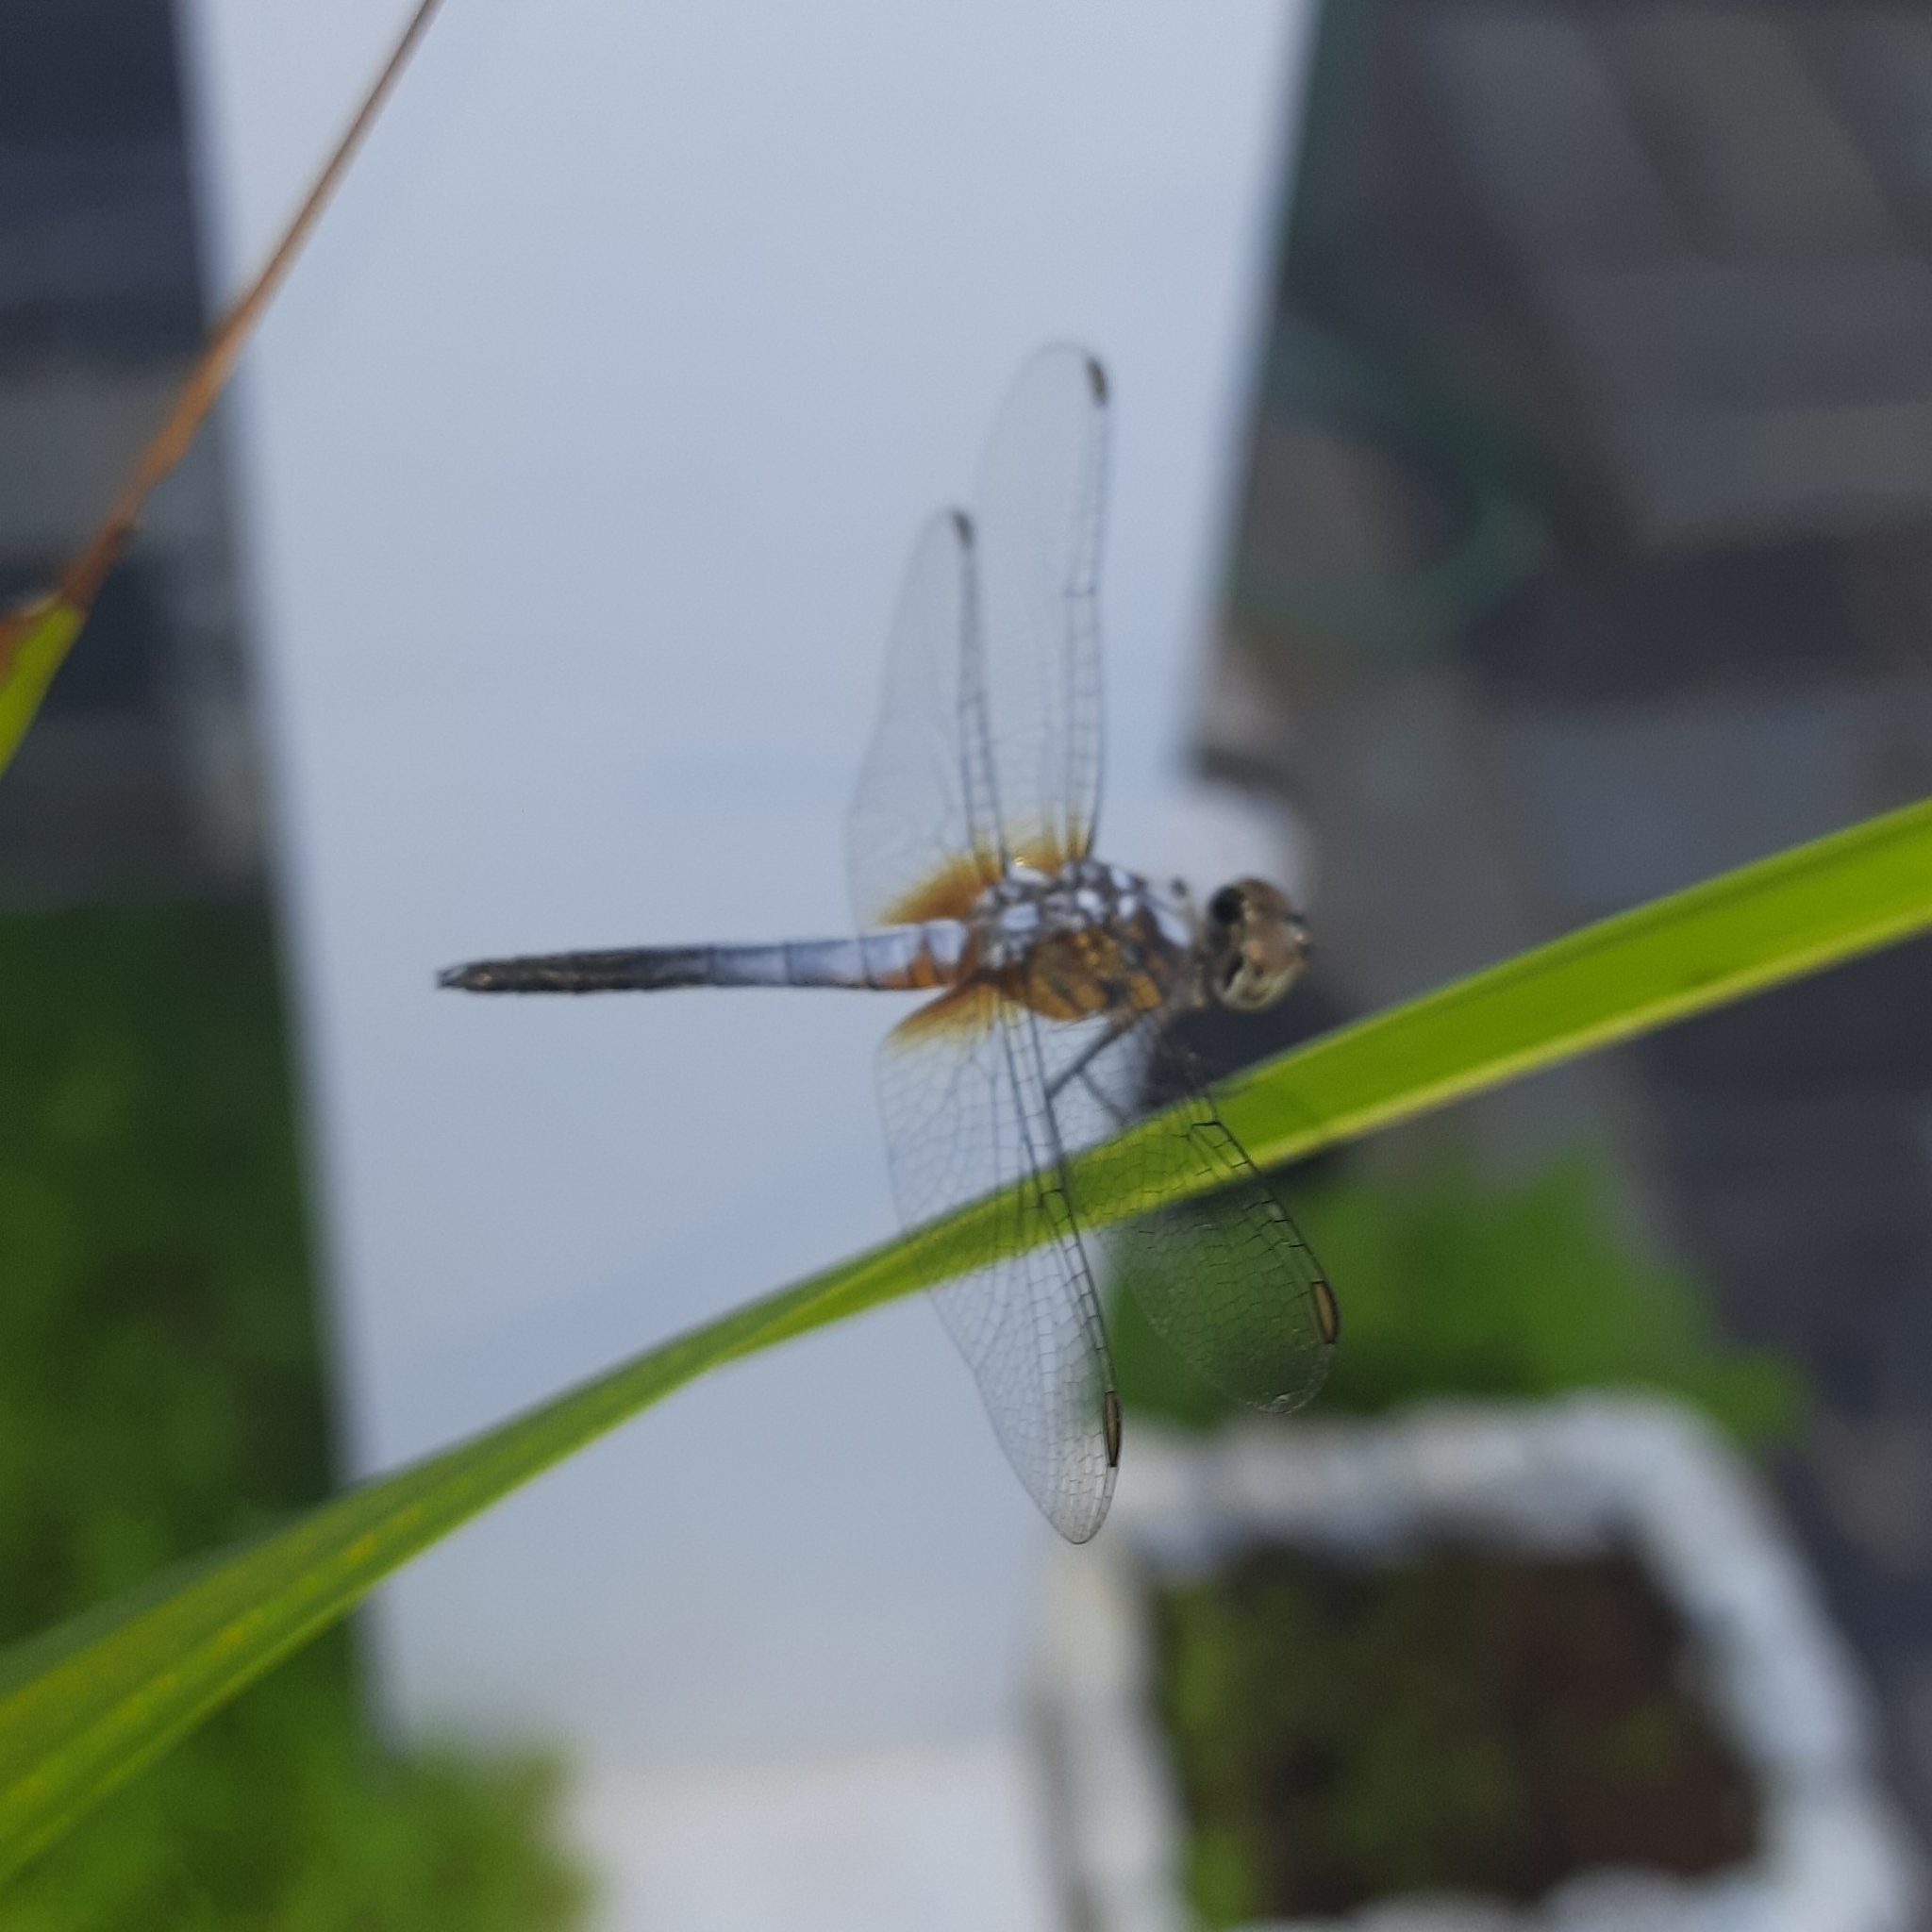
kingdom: Animalia
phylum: Arthropoda
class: Insecta
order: Odonata
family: Libellulidae
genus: Brachydiplax
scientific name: Brachydiplax chalybea
